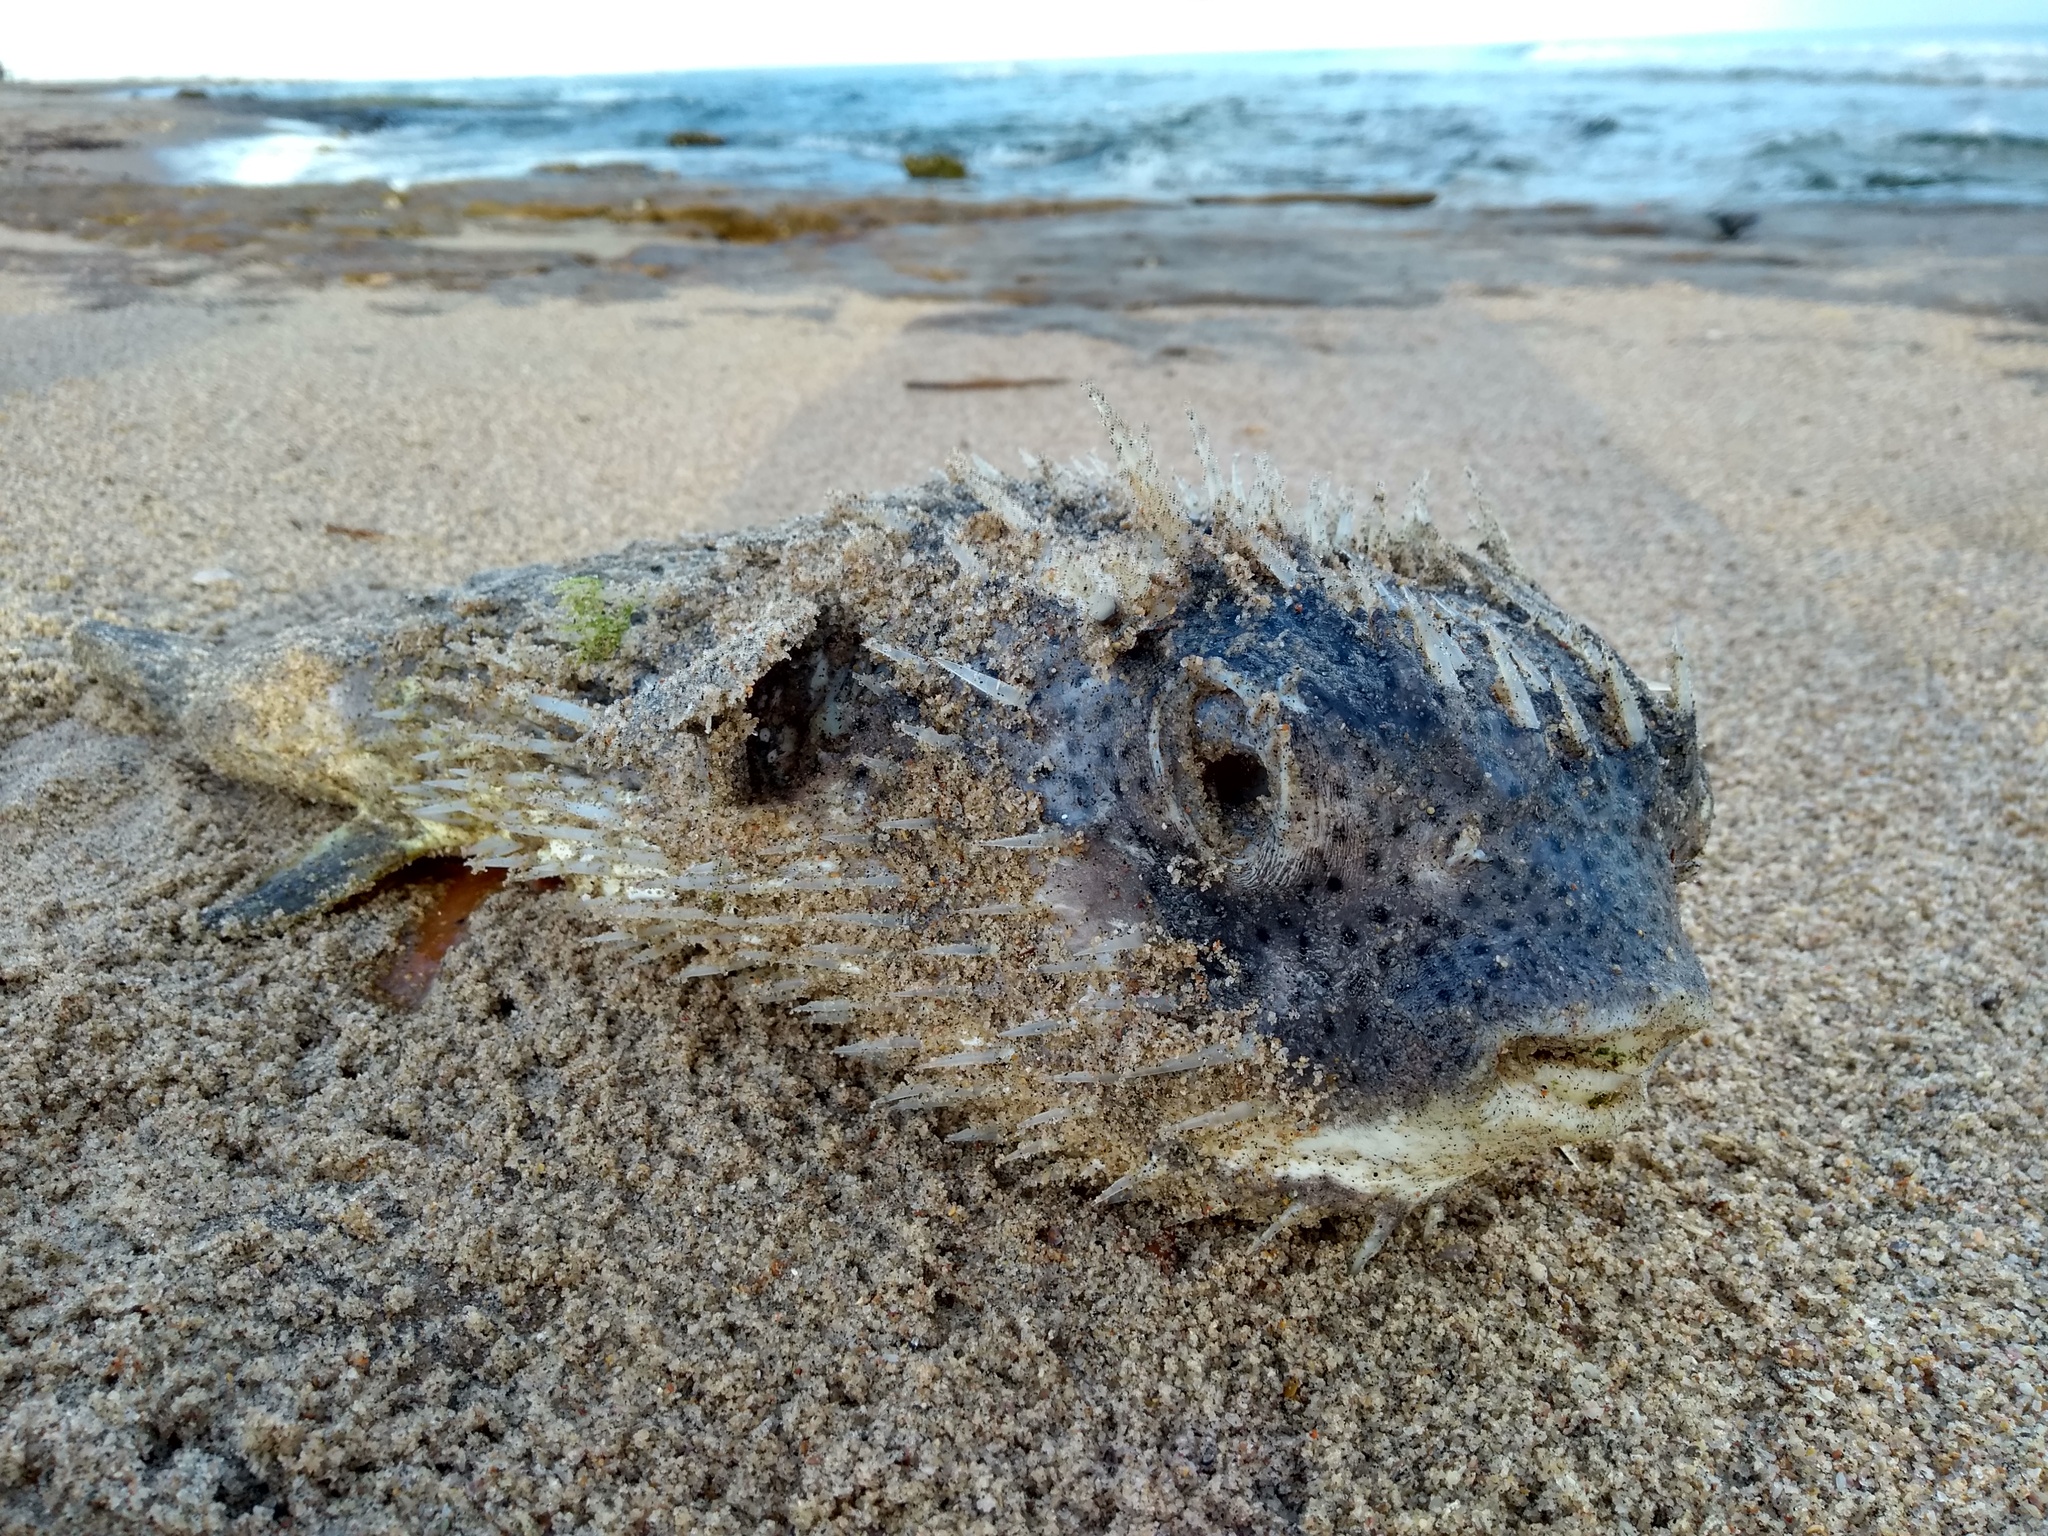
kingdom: Animalia
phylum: Chordata
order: Tetraodontiformes
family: Diodontidae
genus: Diodon
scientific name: Diodon hystrix
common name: Giant porcupinefish
